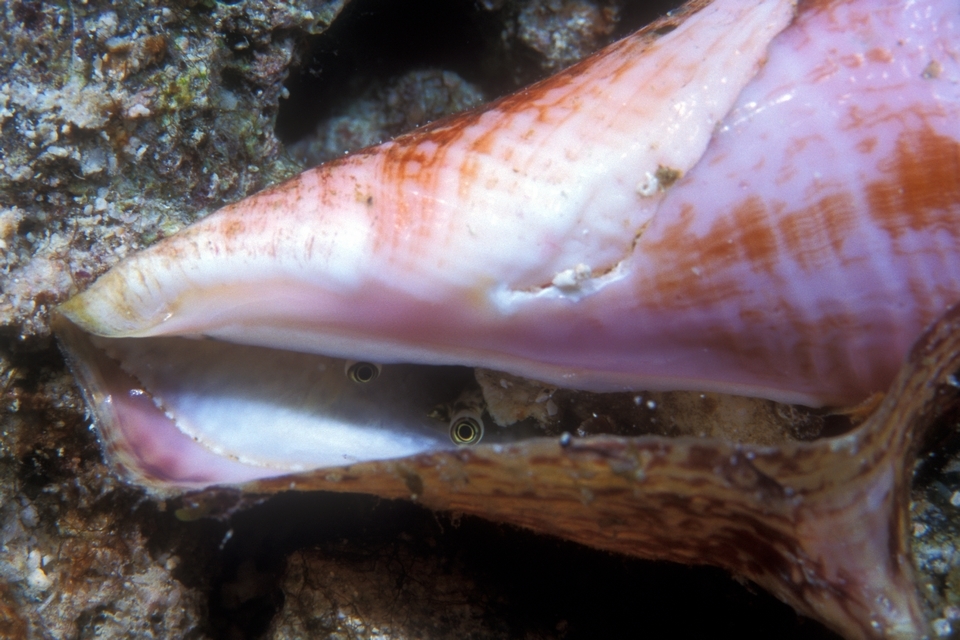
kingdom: Animalia
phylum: Mollusca
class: Gastropoda
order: Littorinimorpha
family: Strombidae
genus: Aliger
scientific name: Aliger gigas
